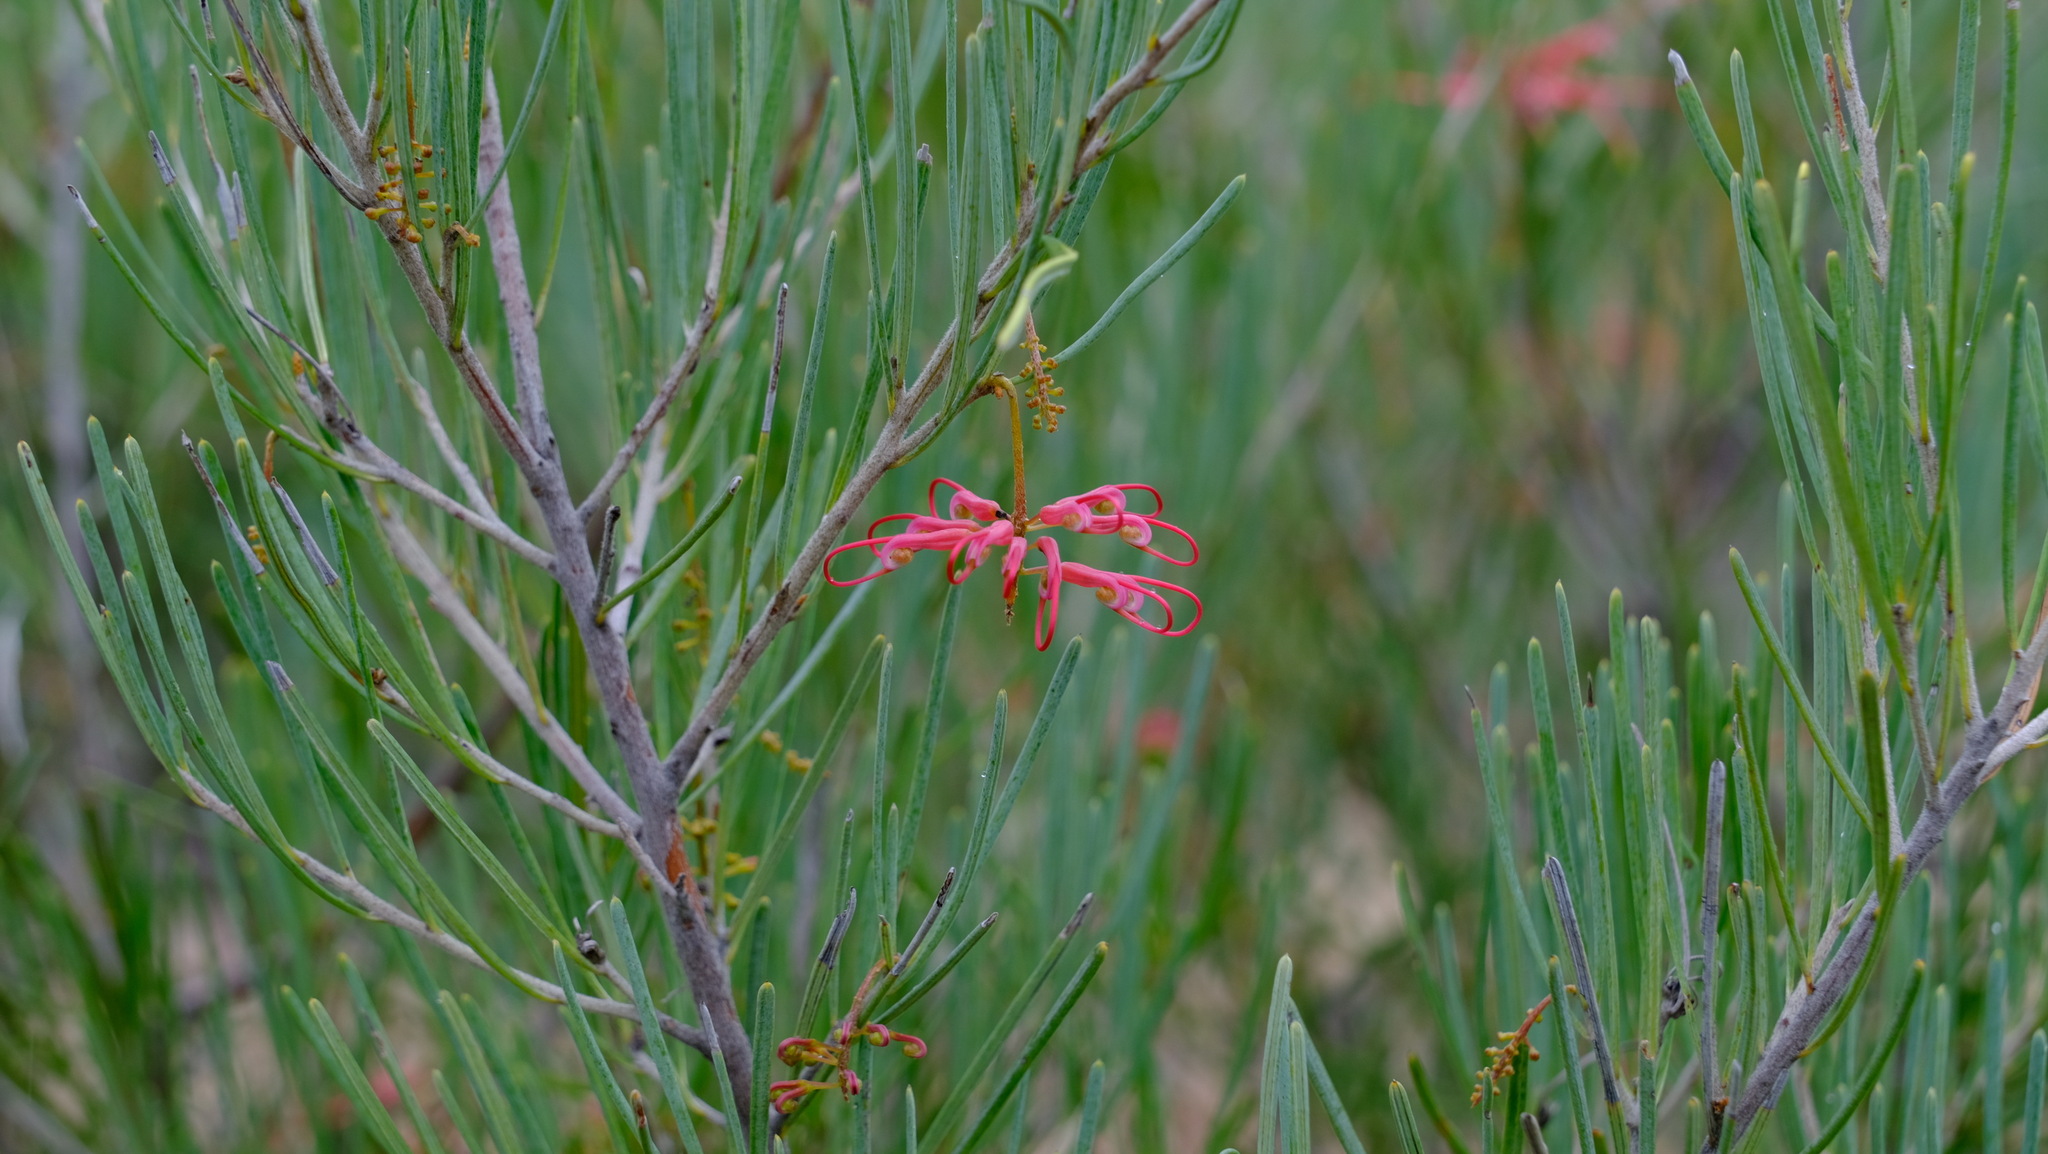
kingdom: Plantae
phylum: Tracheophyta
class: Magnoliopsida
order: Proteales
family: Proteaceae
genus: Grevillea
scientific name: Grevillea pinaster
